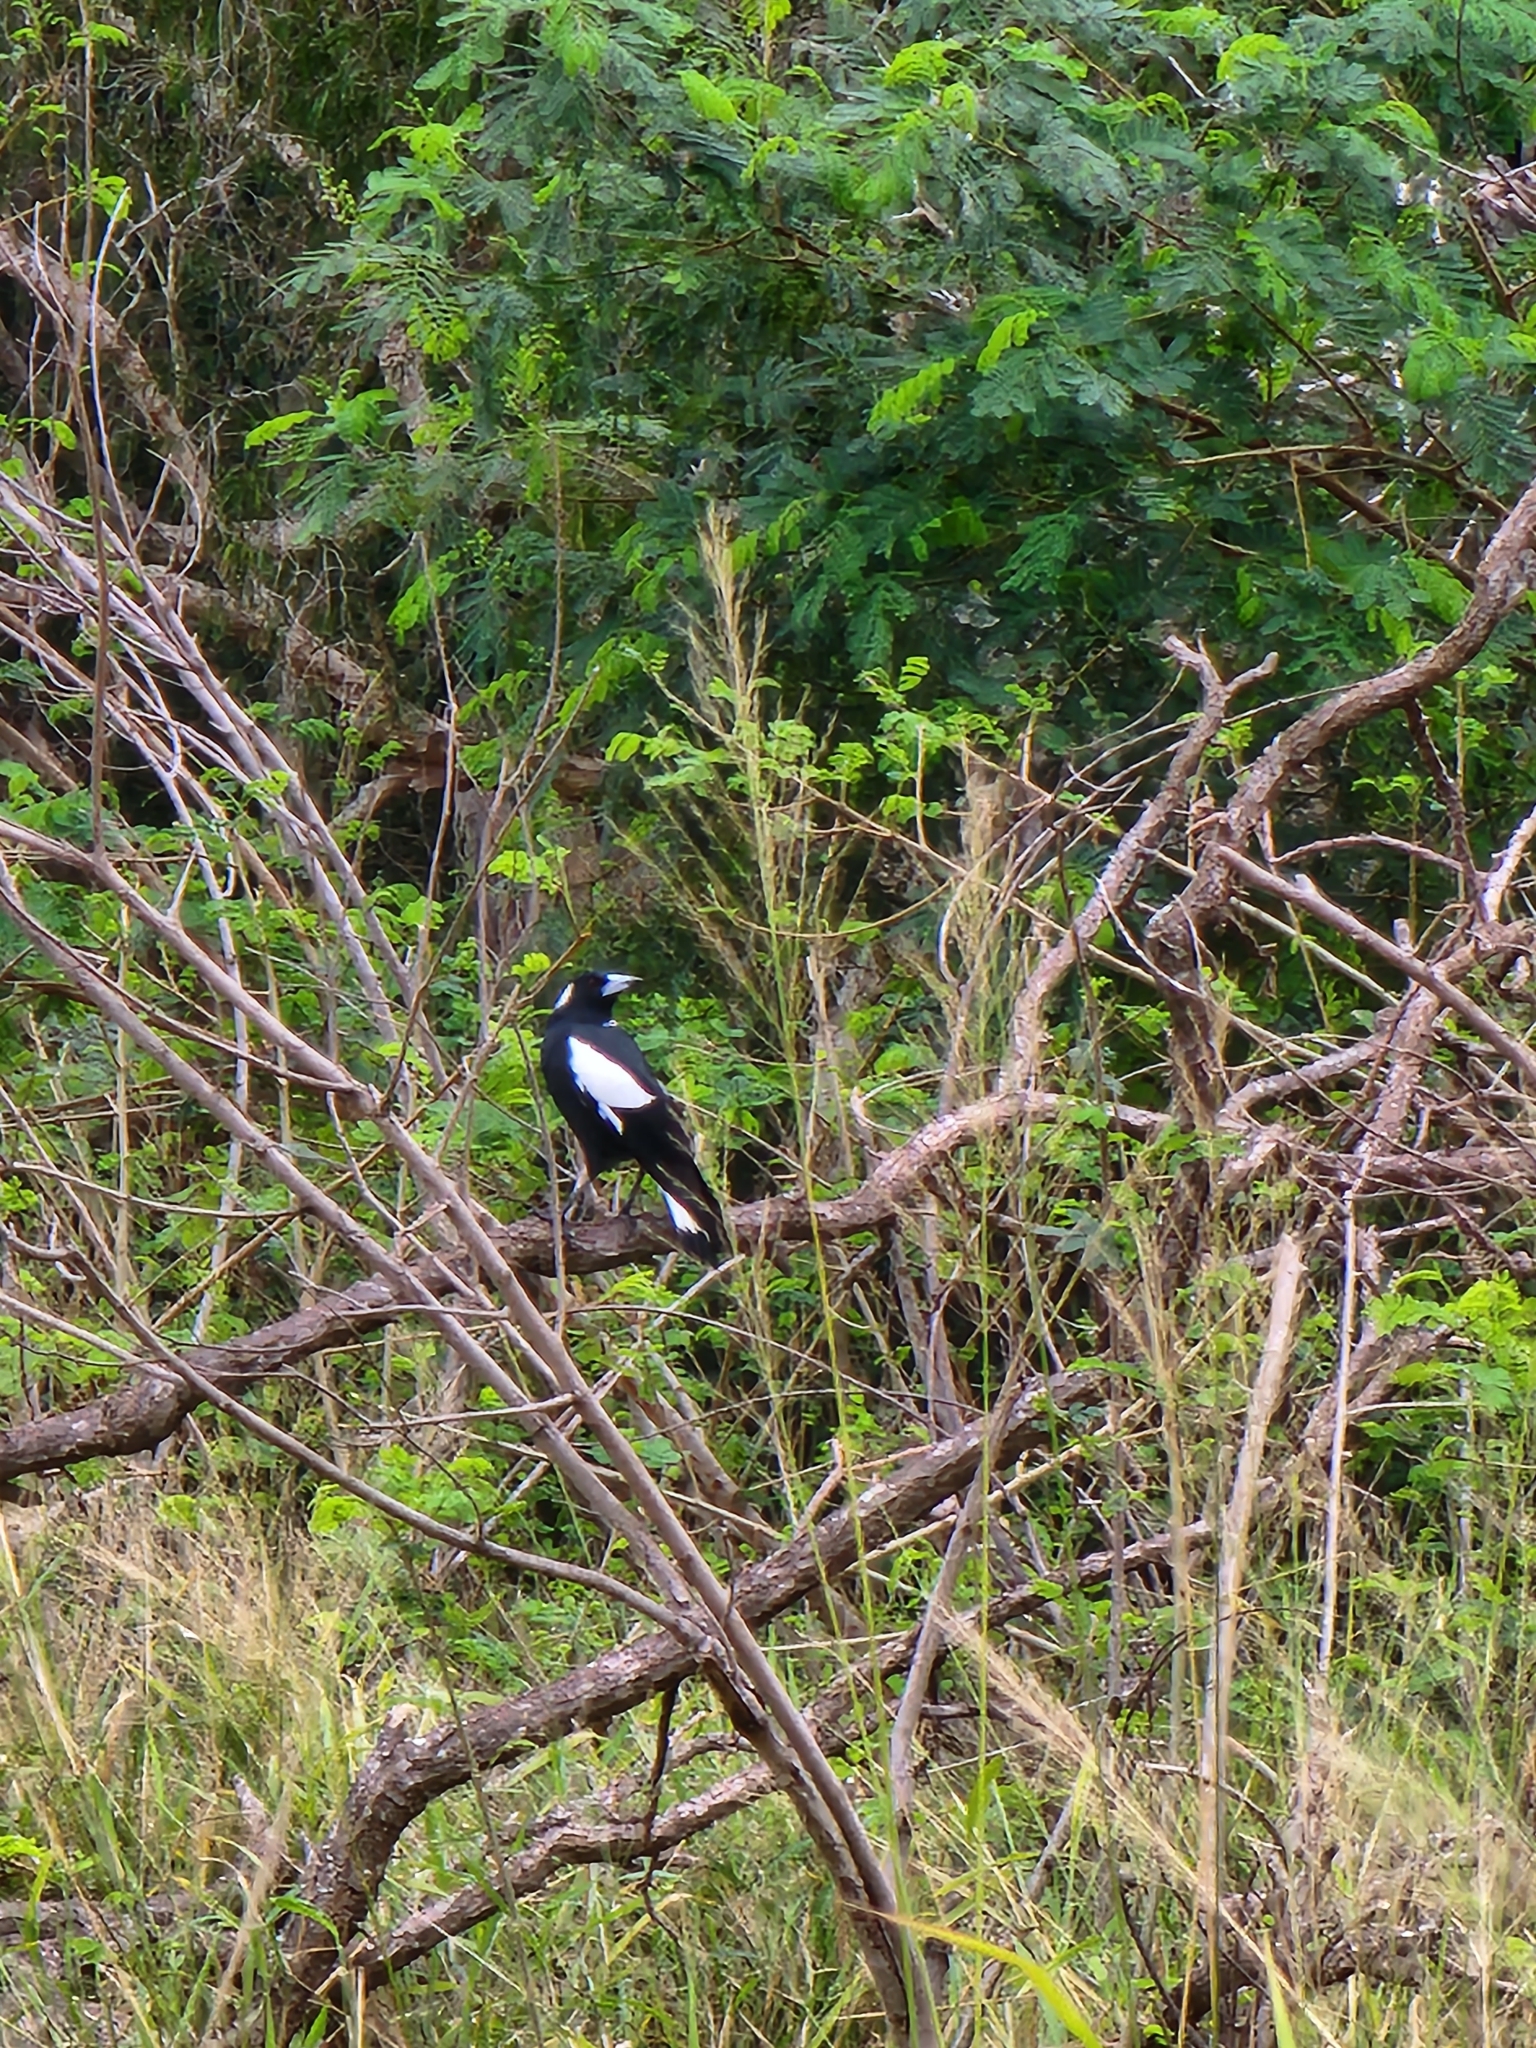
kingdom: Animalia
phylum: Chordata
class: Aves
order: Passeriformes
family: Cracticidae
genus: Gymnorhina
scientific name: Gymnorhina tibicen
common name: Australian magpie
